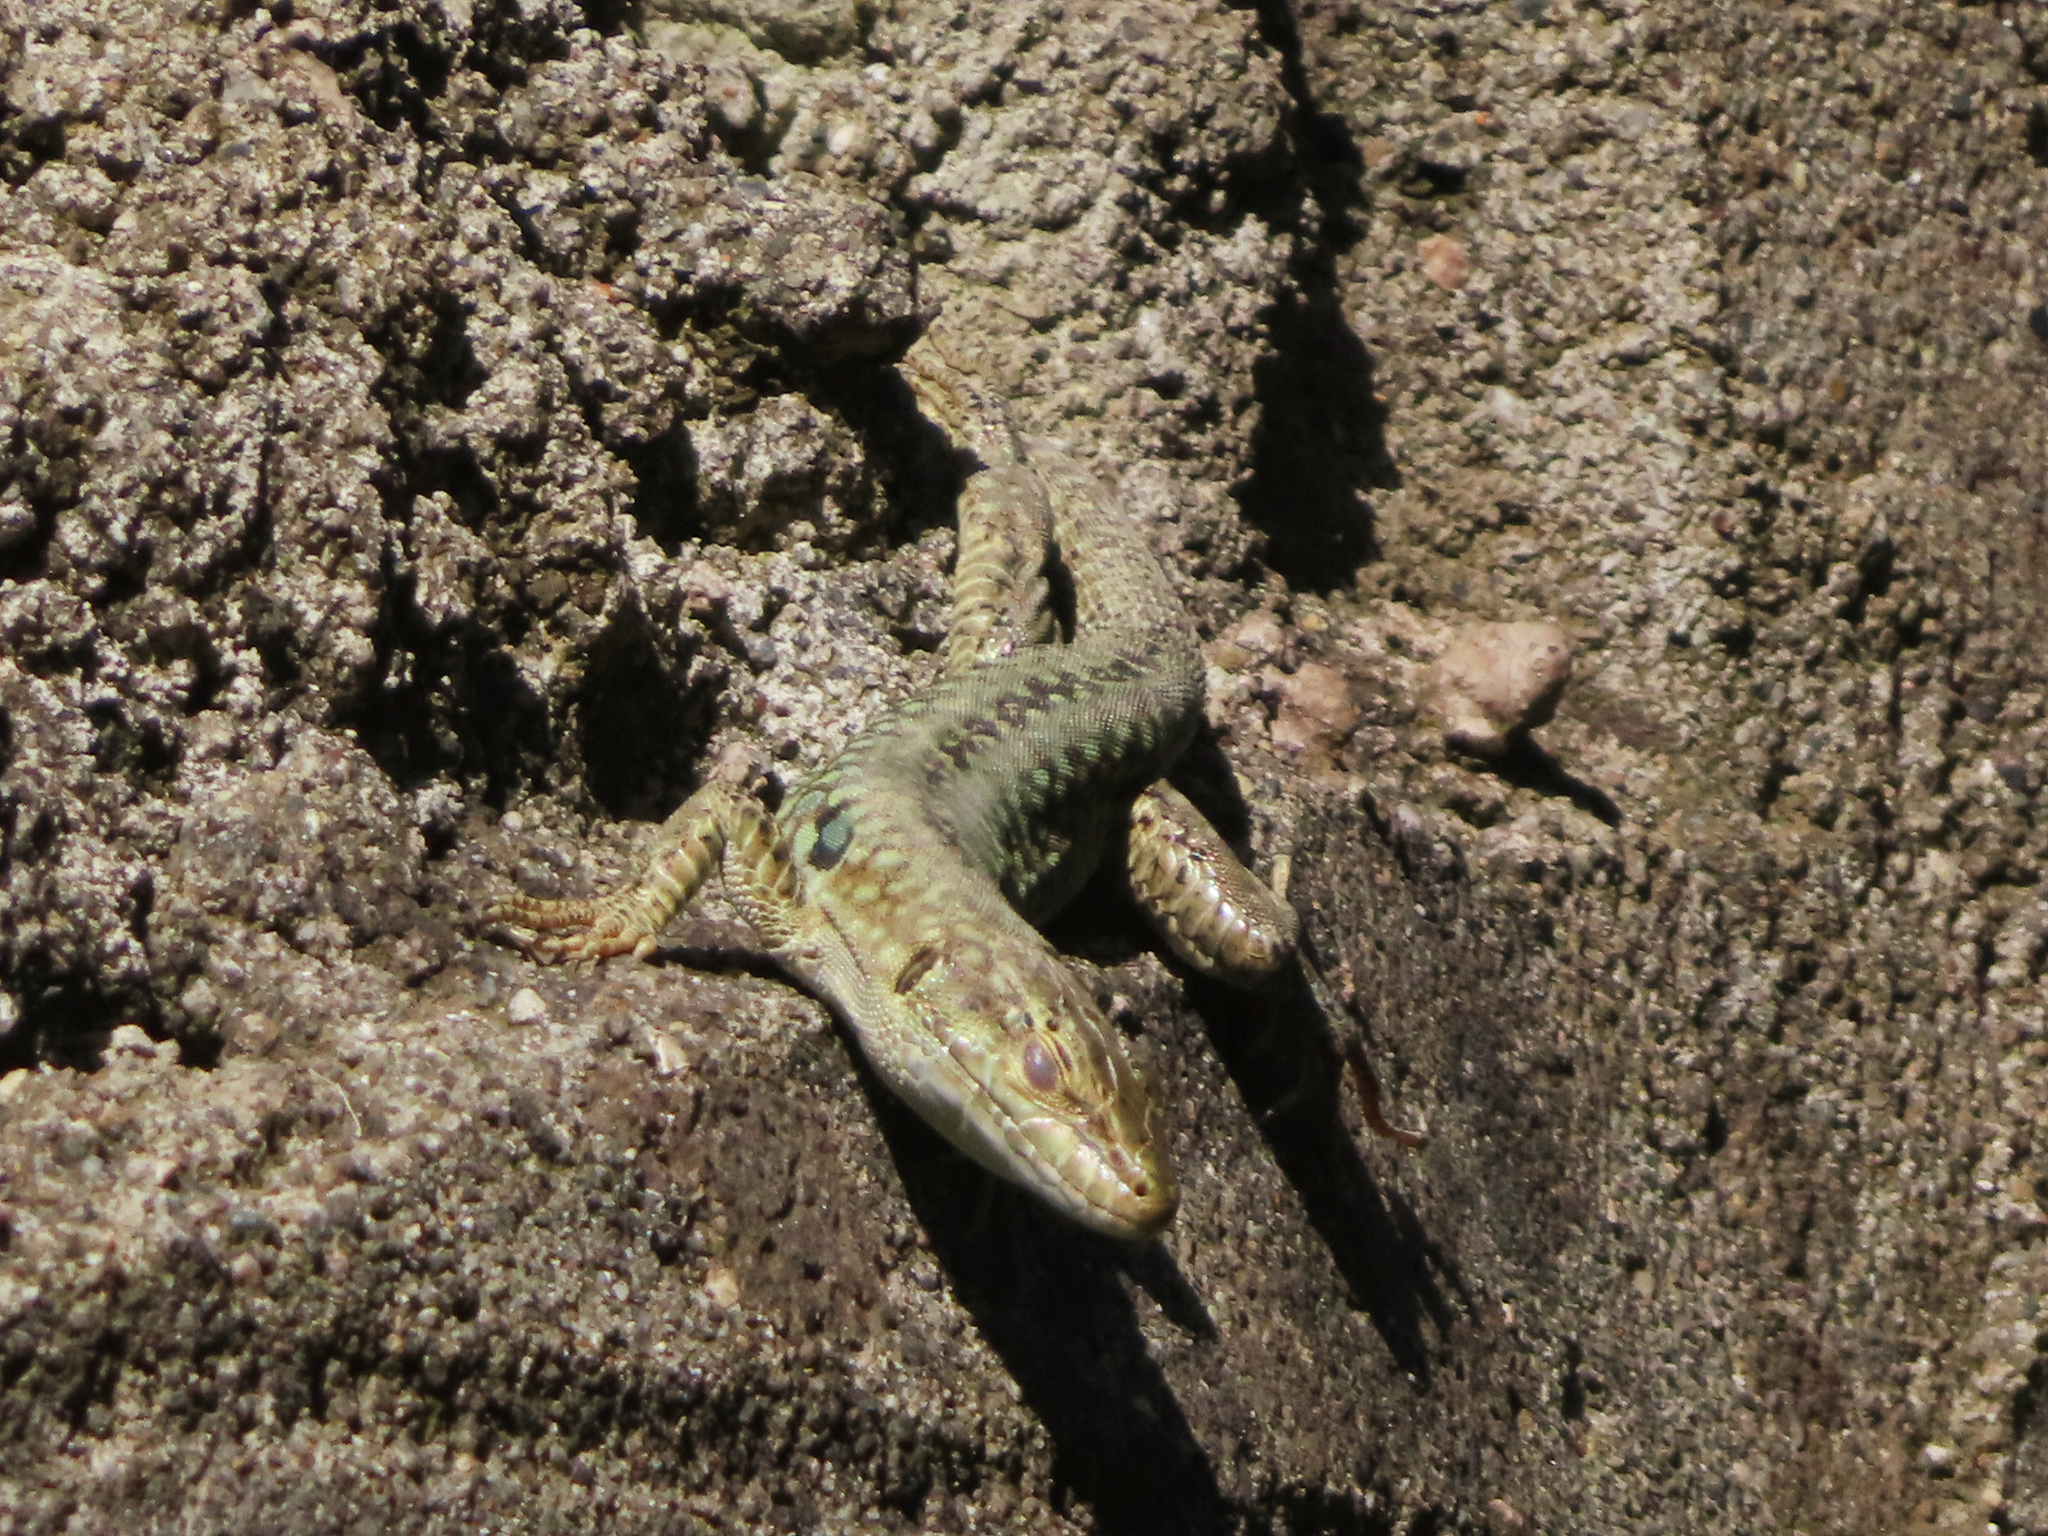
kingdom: Animalia
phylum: Chordata
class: Squamata
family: Lacertidae
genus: Podarcis
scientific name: Podarcis siculus
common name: Italian wall lizard
